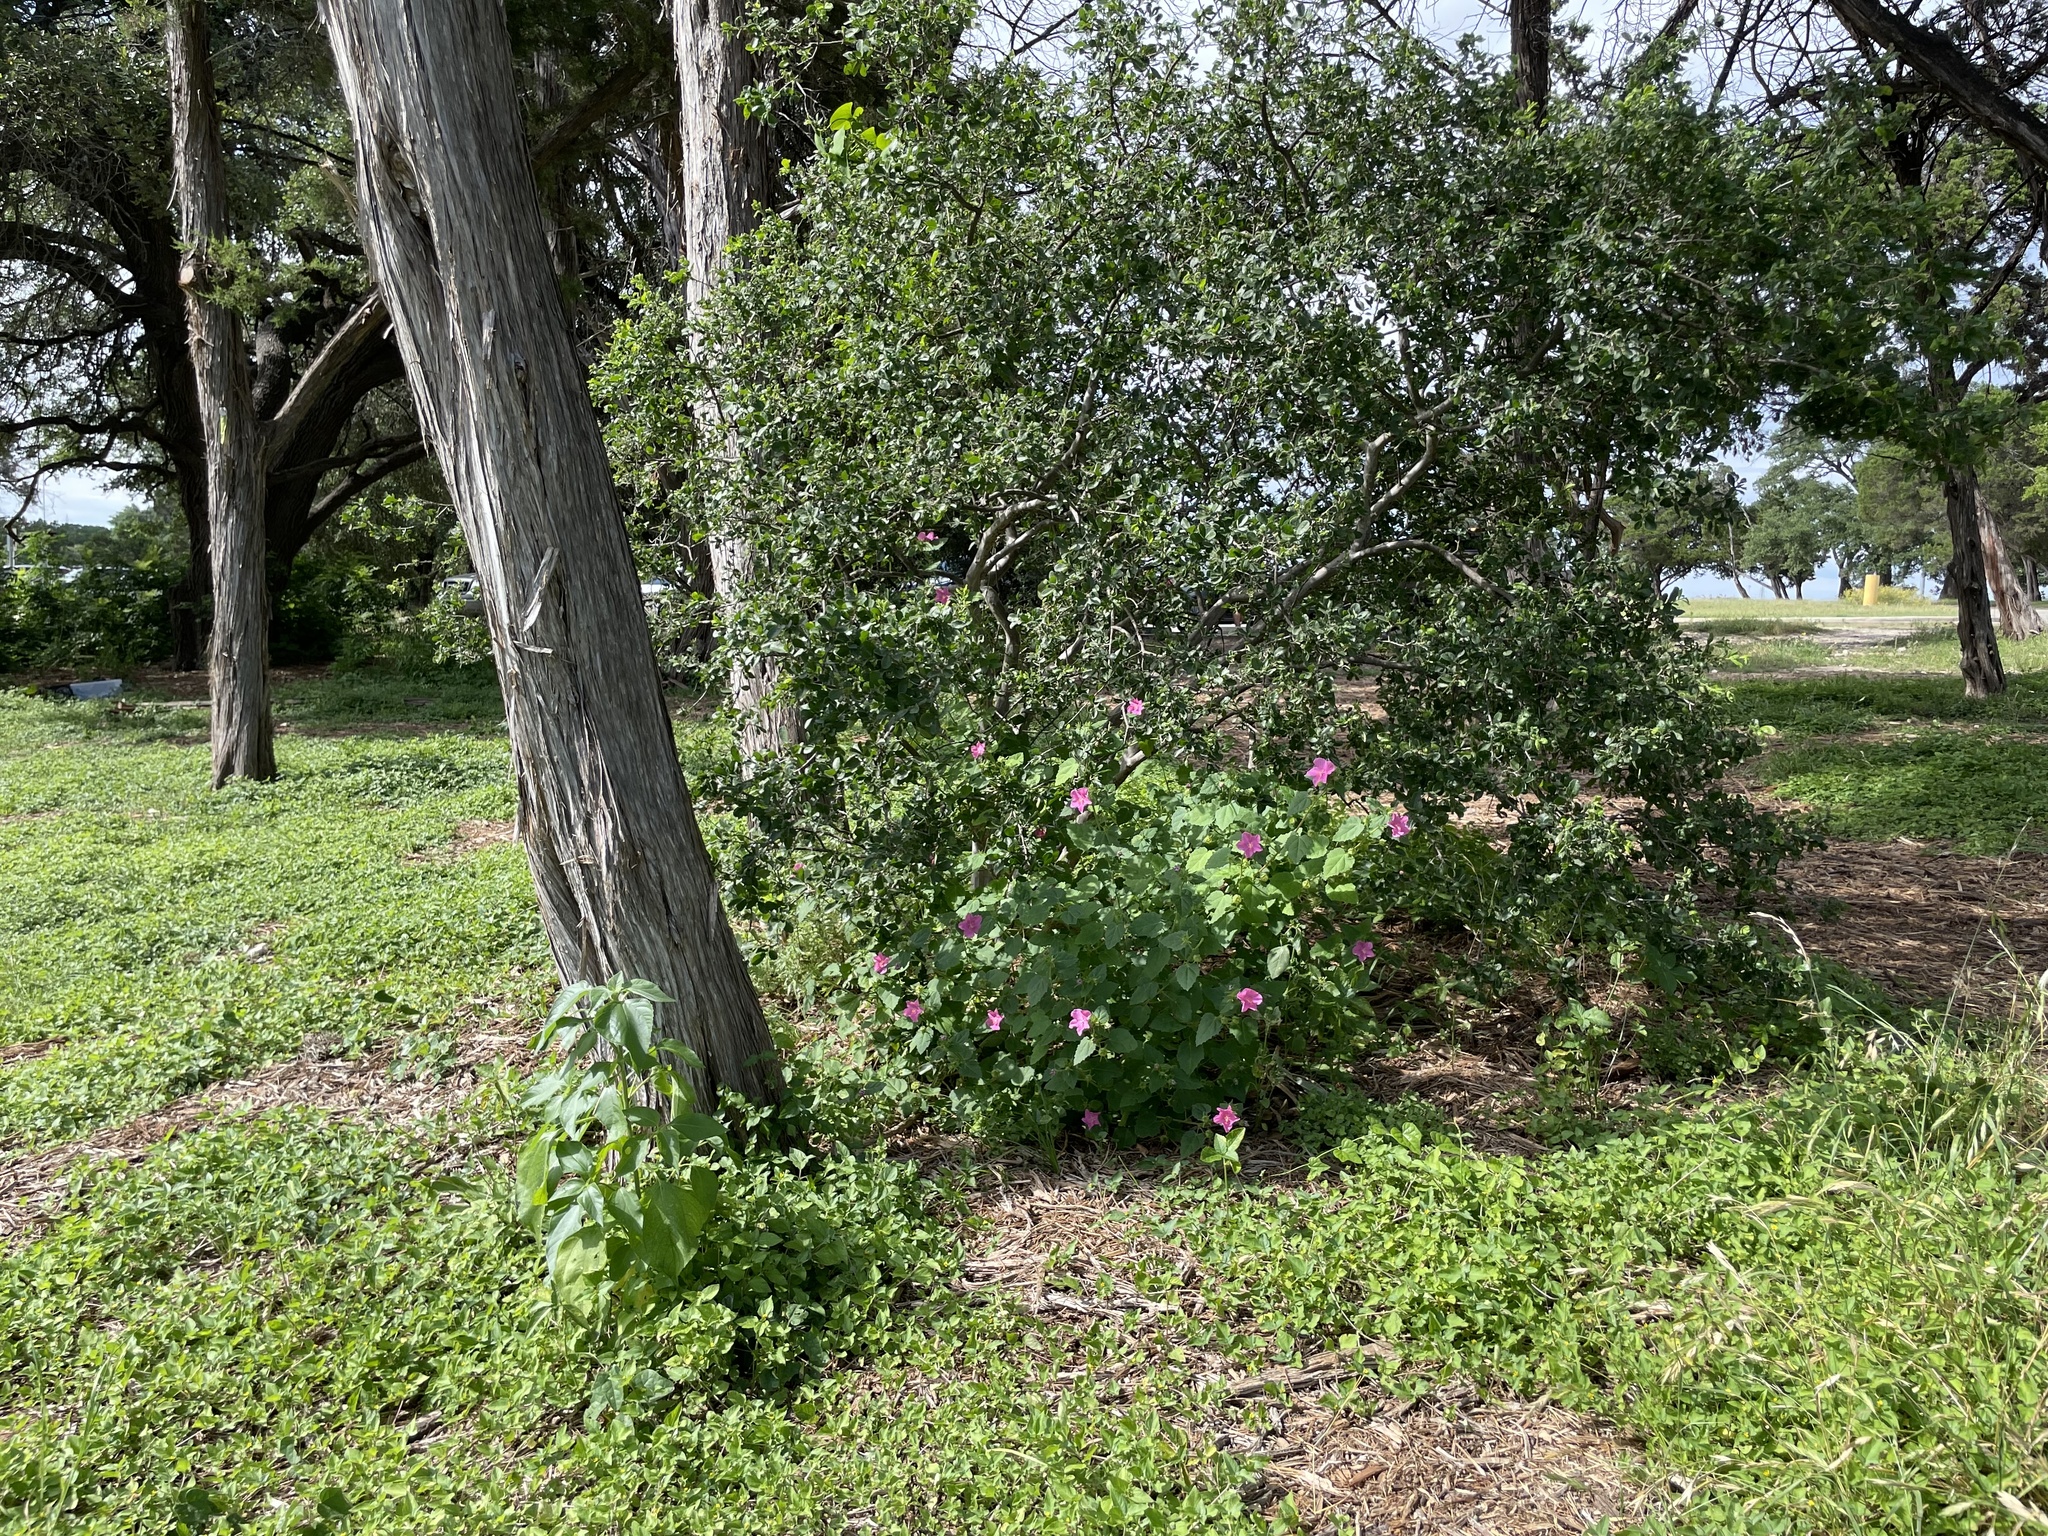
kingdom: Plantae
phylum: Tracheophyta
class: Magnoliopsida
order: Malvales
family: Malvaceae
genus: Pavonia
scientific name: Pavonia lasiopetala
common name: Texas swamp-mallow
